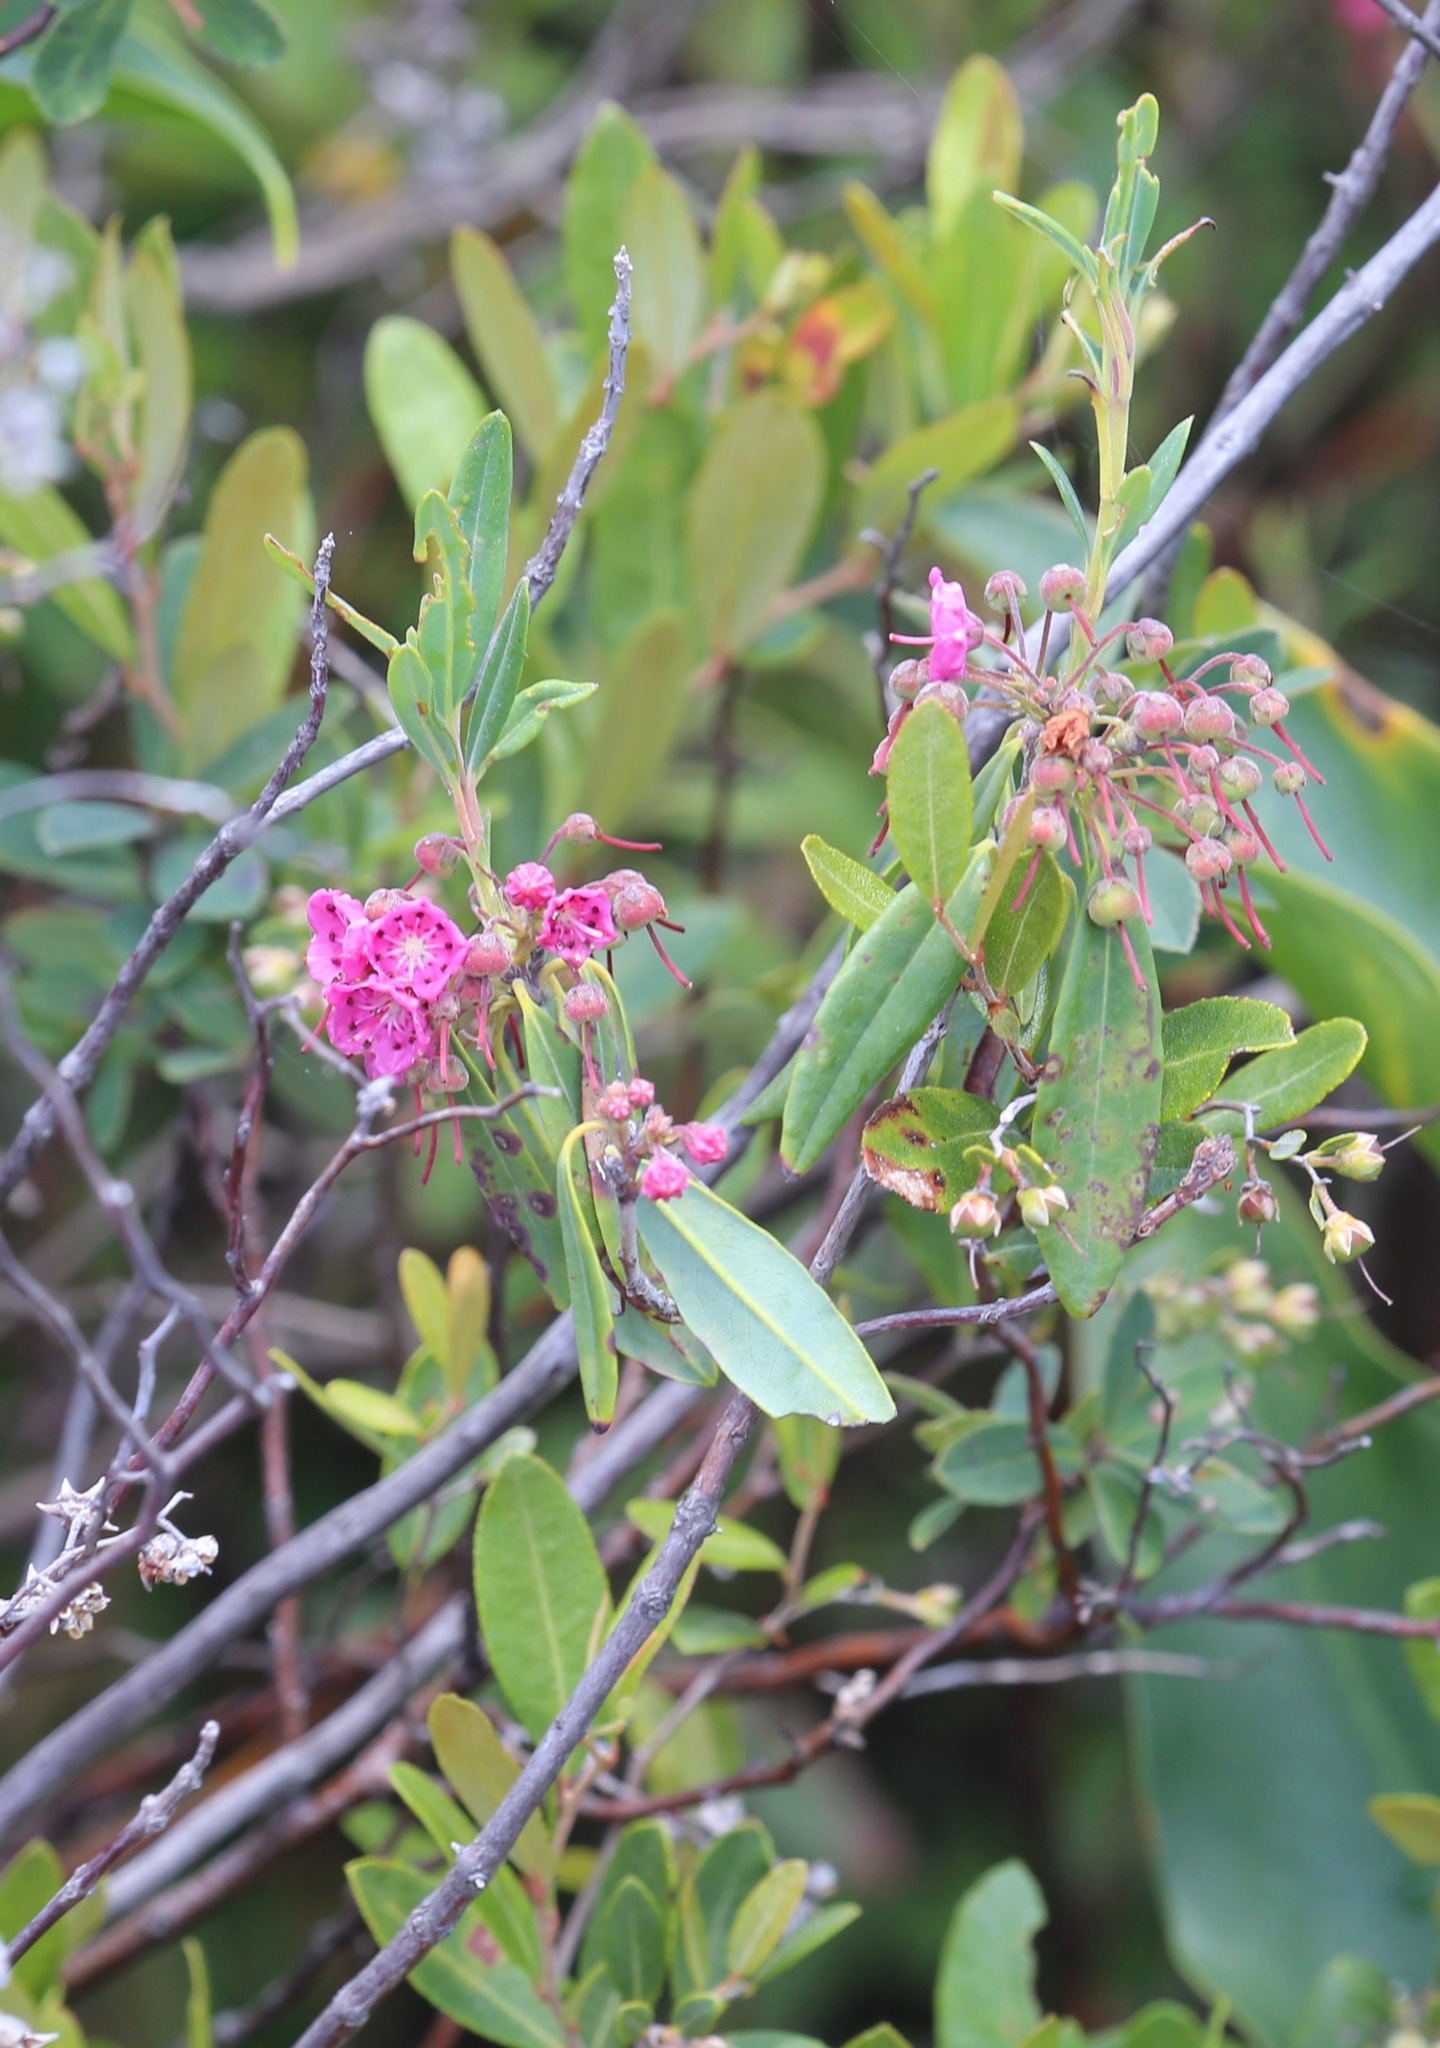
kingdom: Plantae
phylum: Tracheophyta
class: Magnoliopsida
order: Ericales
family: Ericaceae
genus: Kalmia
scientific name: Kalmia angustifolia
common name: Sheep-laurel
